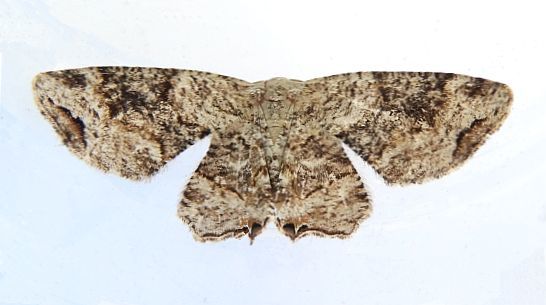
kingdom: Animalia
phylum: Arthropoda
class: Insecta
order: Lepidoptera
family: Uraniidae
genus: Epiplema
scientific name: Epiplema Callizzia certiorara
